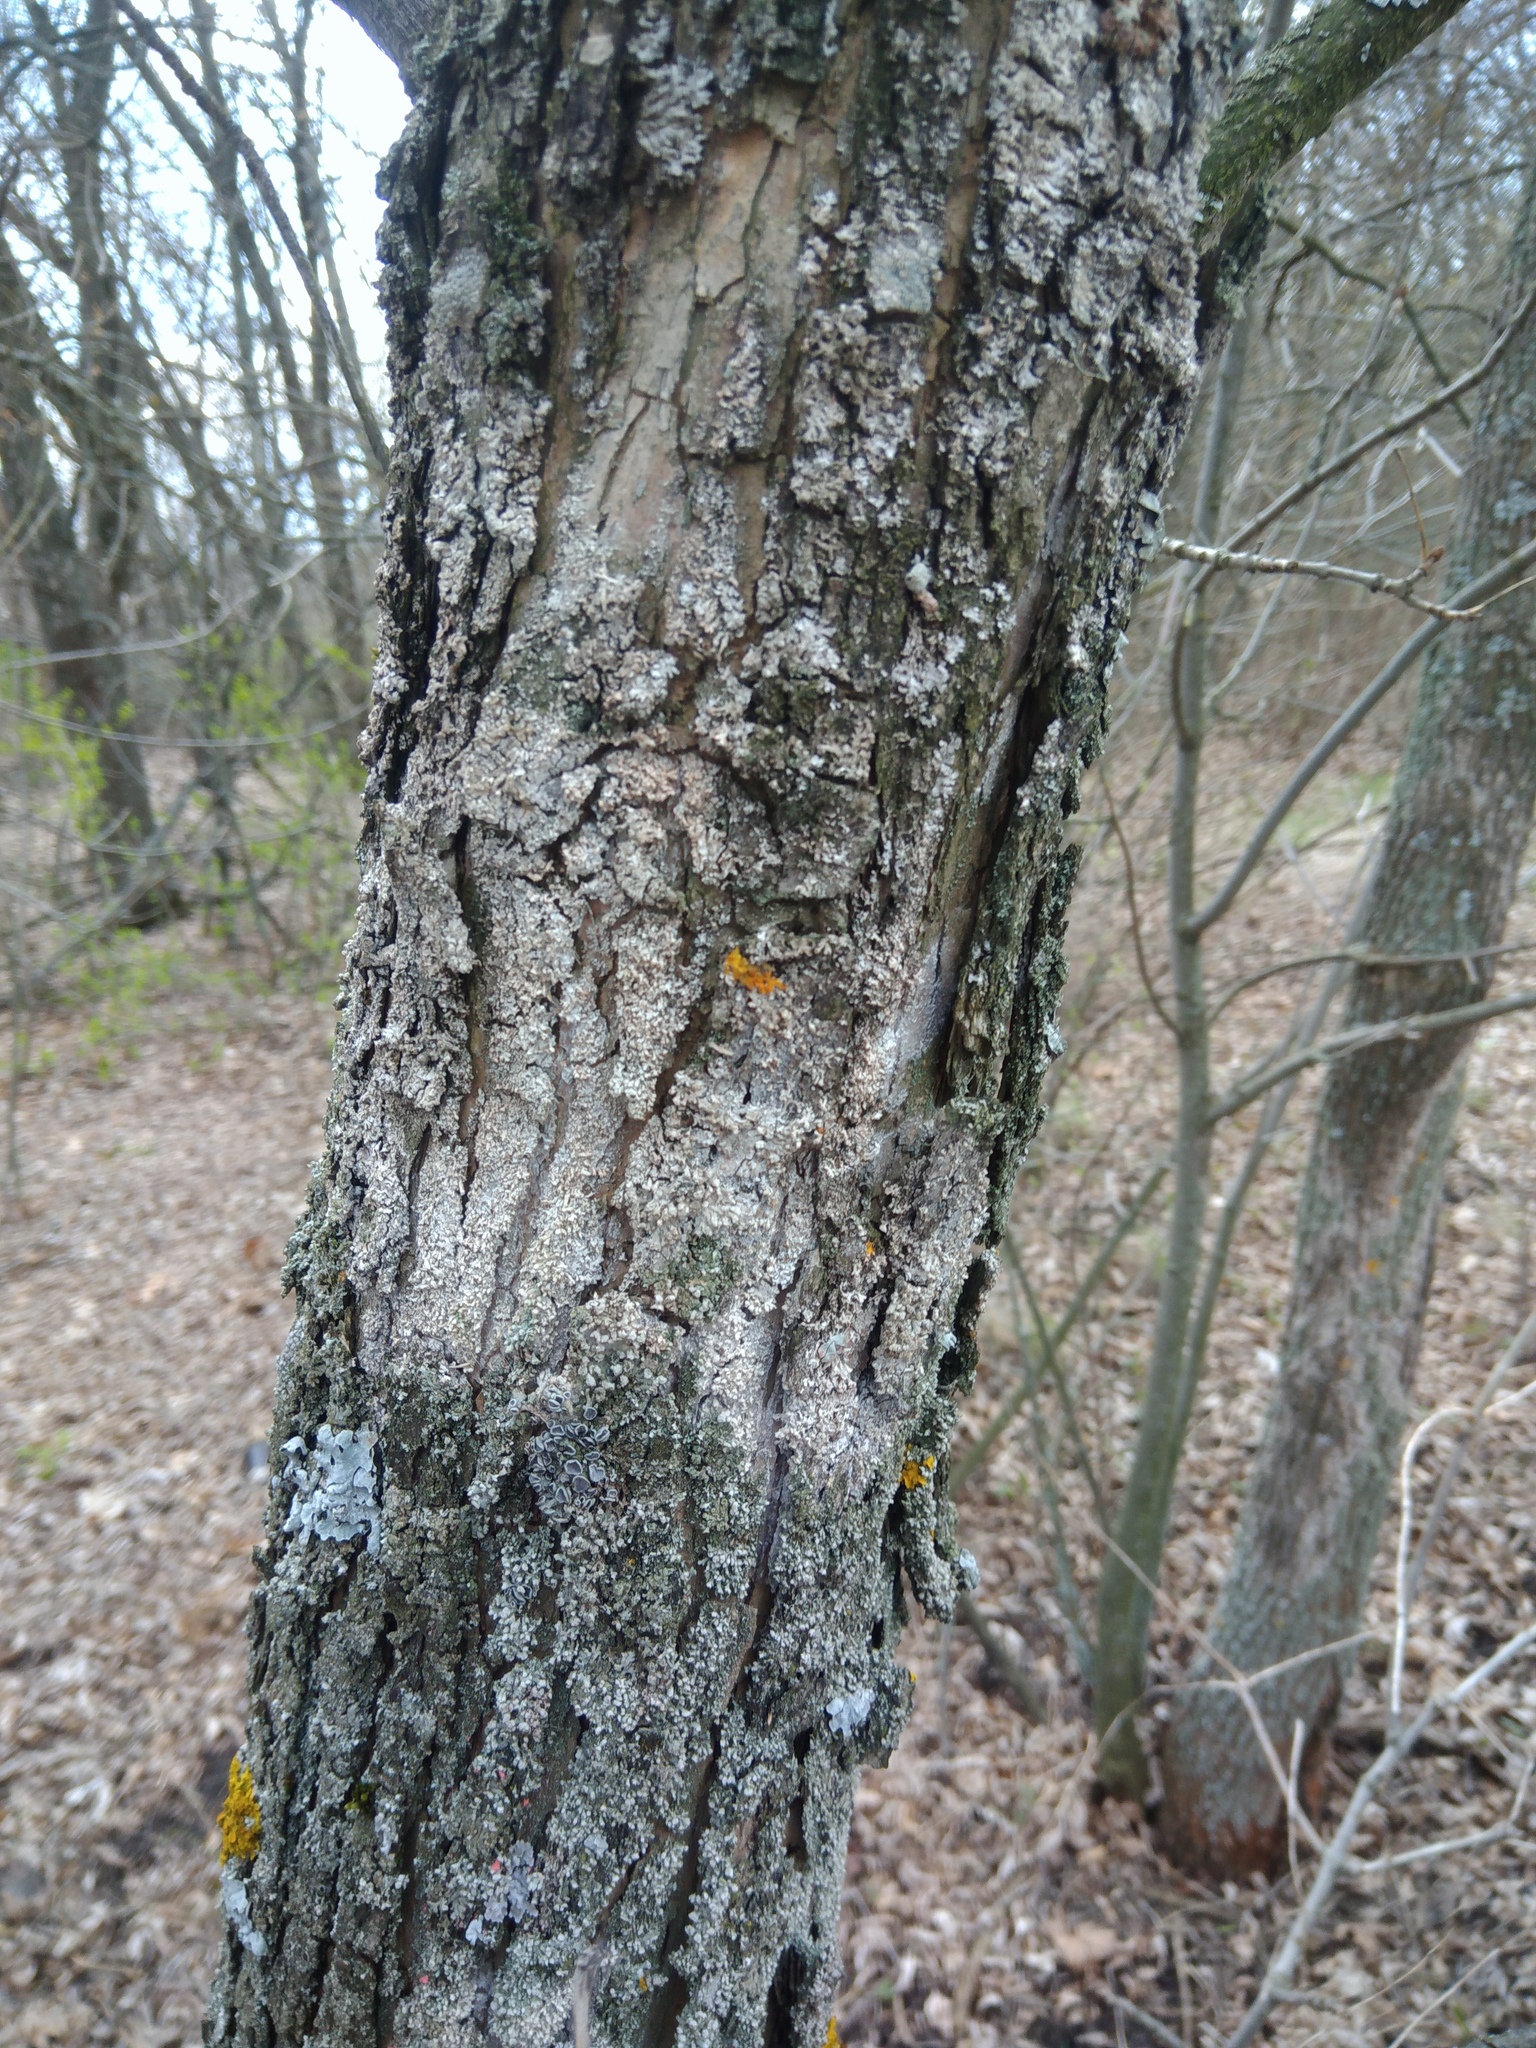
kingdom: Fungi
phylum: Basidiomycota
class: Agaricomycetes
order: Atheliales
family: Atheliaceae
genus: Athelia
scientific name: Athelia arachnoidea
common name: Candelabra duster
